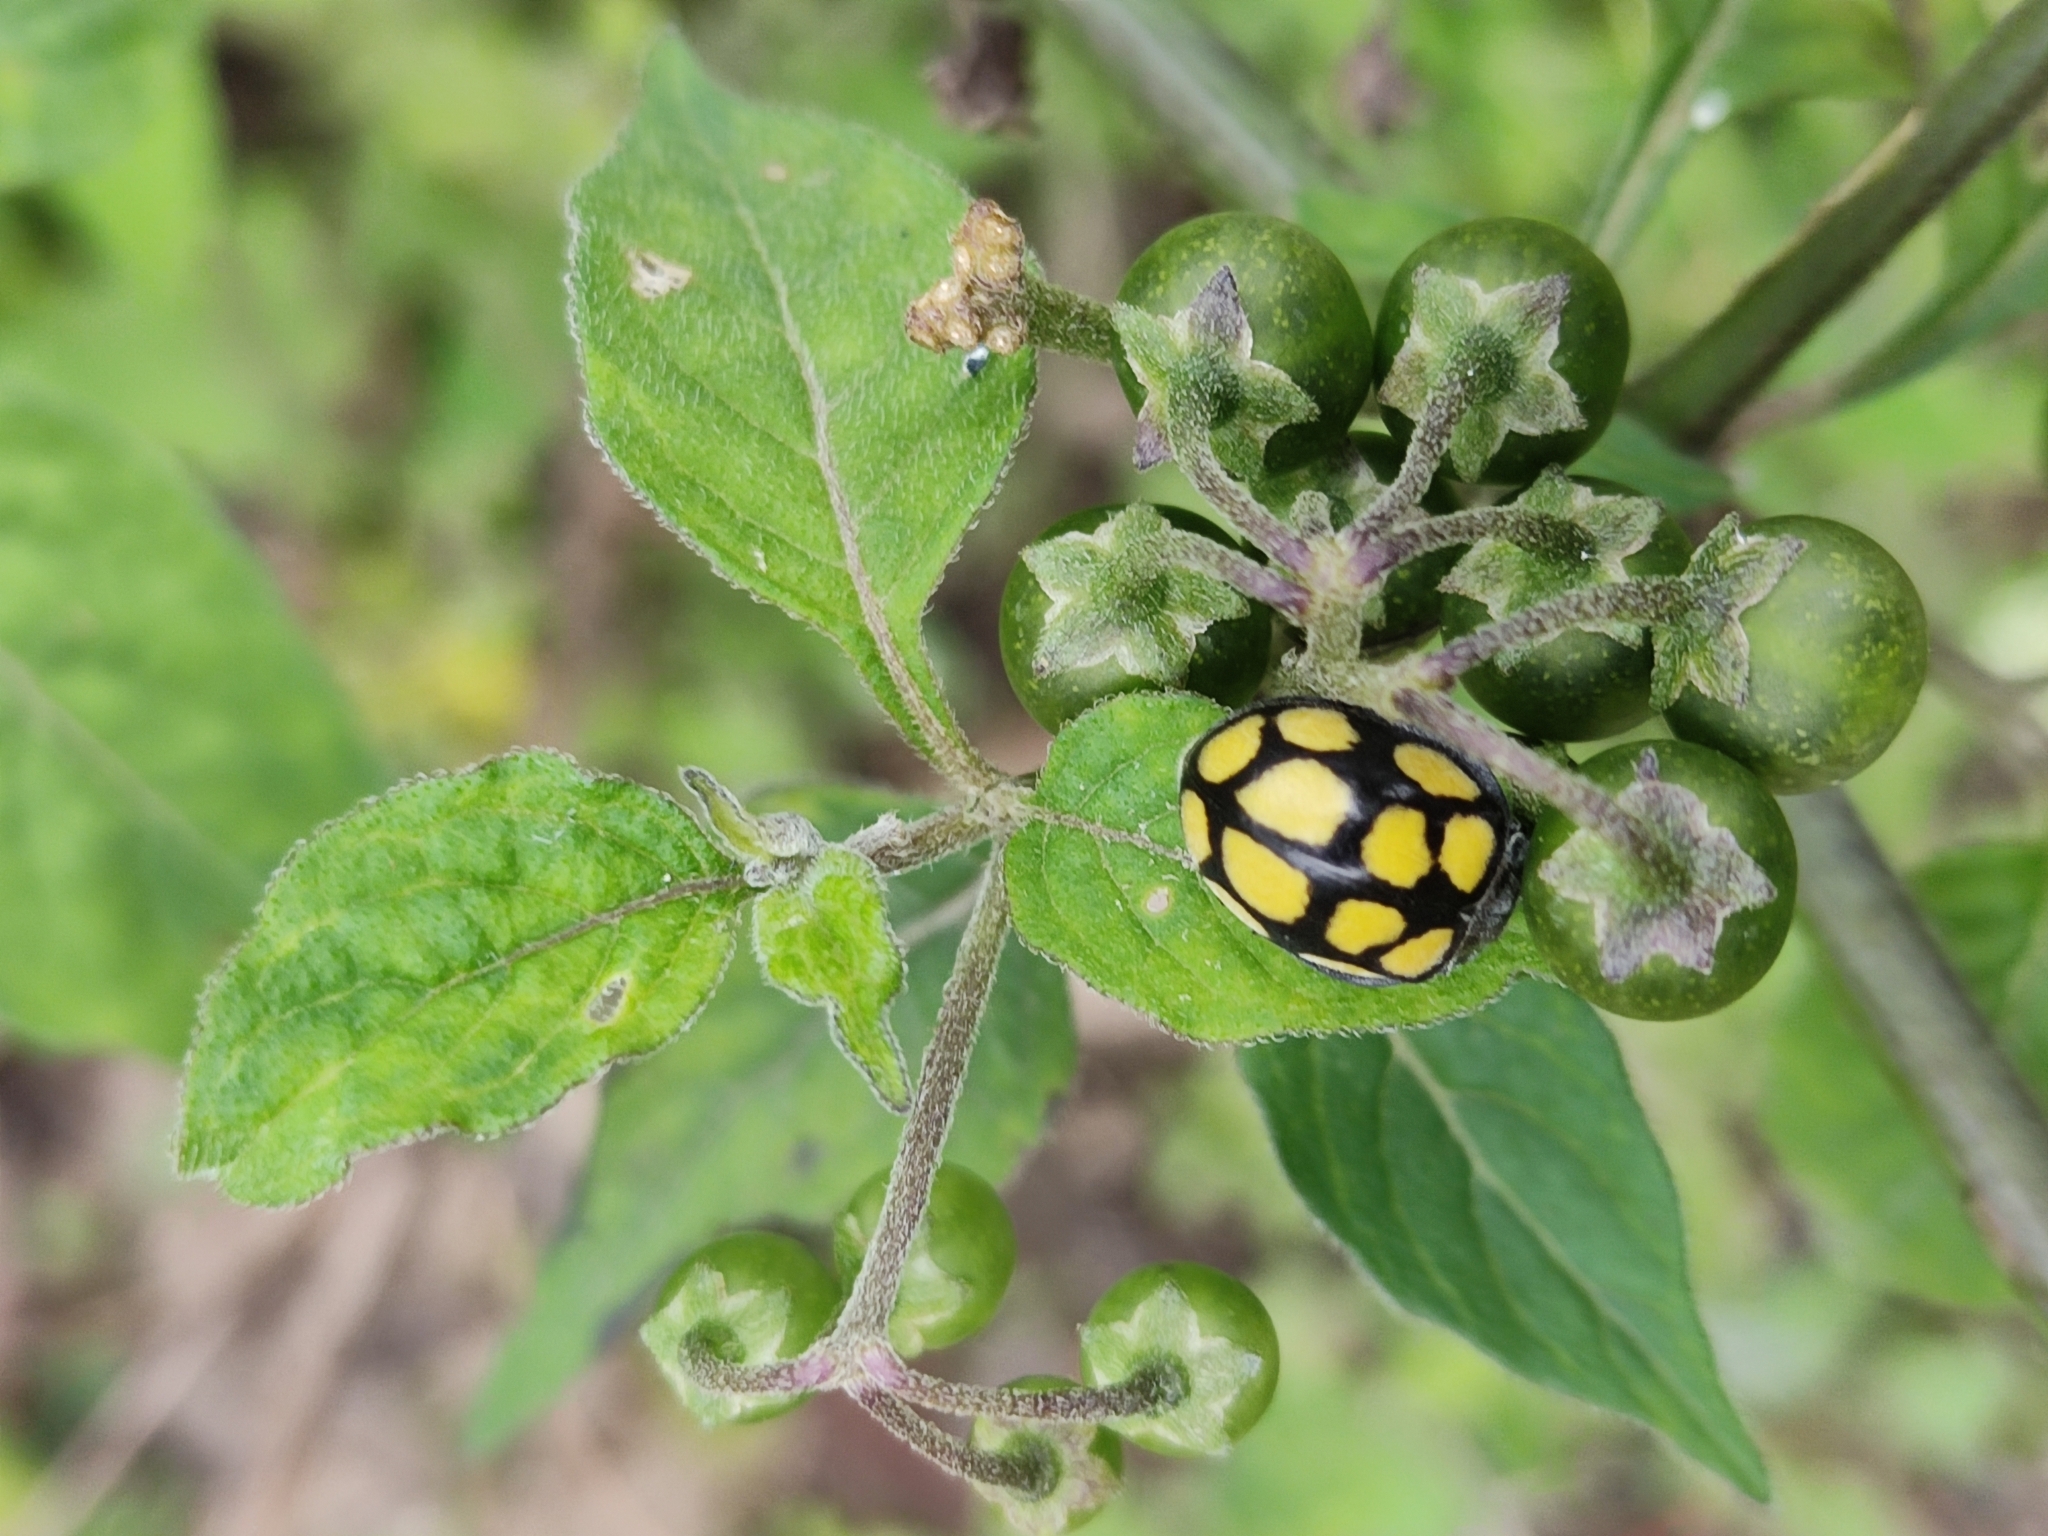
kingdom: Animalia
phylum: Arthropoda
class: Insecta
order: Coleoptera
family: Coccinellidae
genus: Epilachna
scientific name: Epilachna
